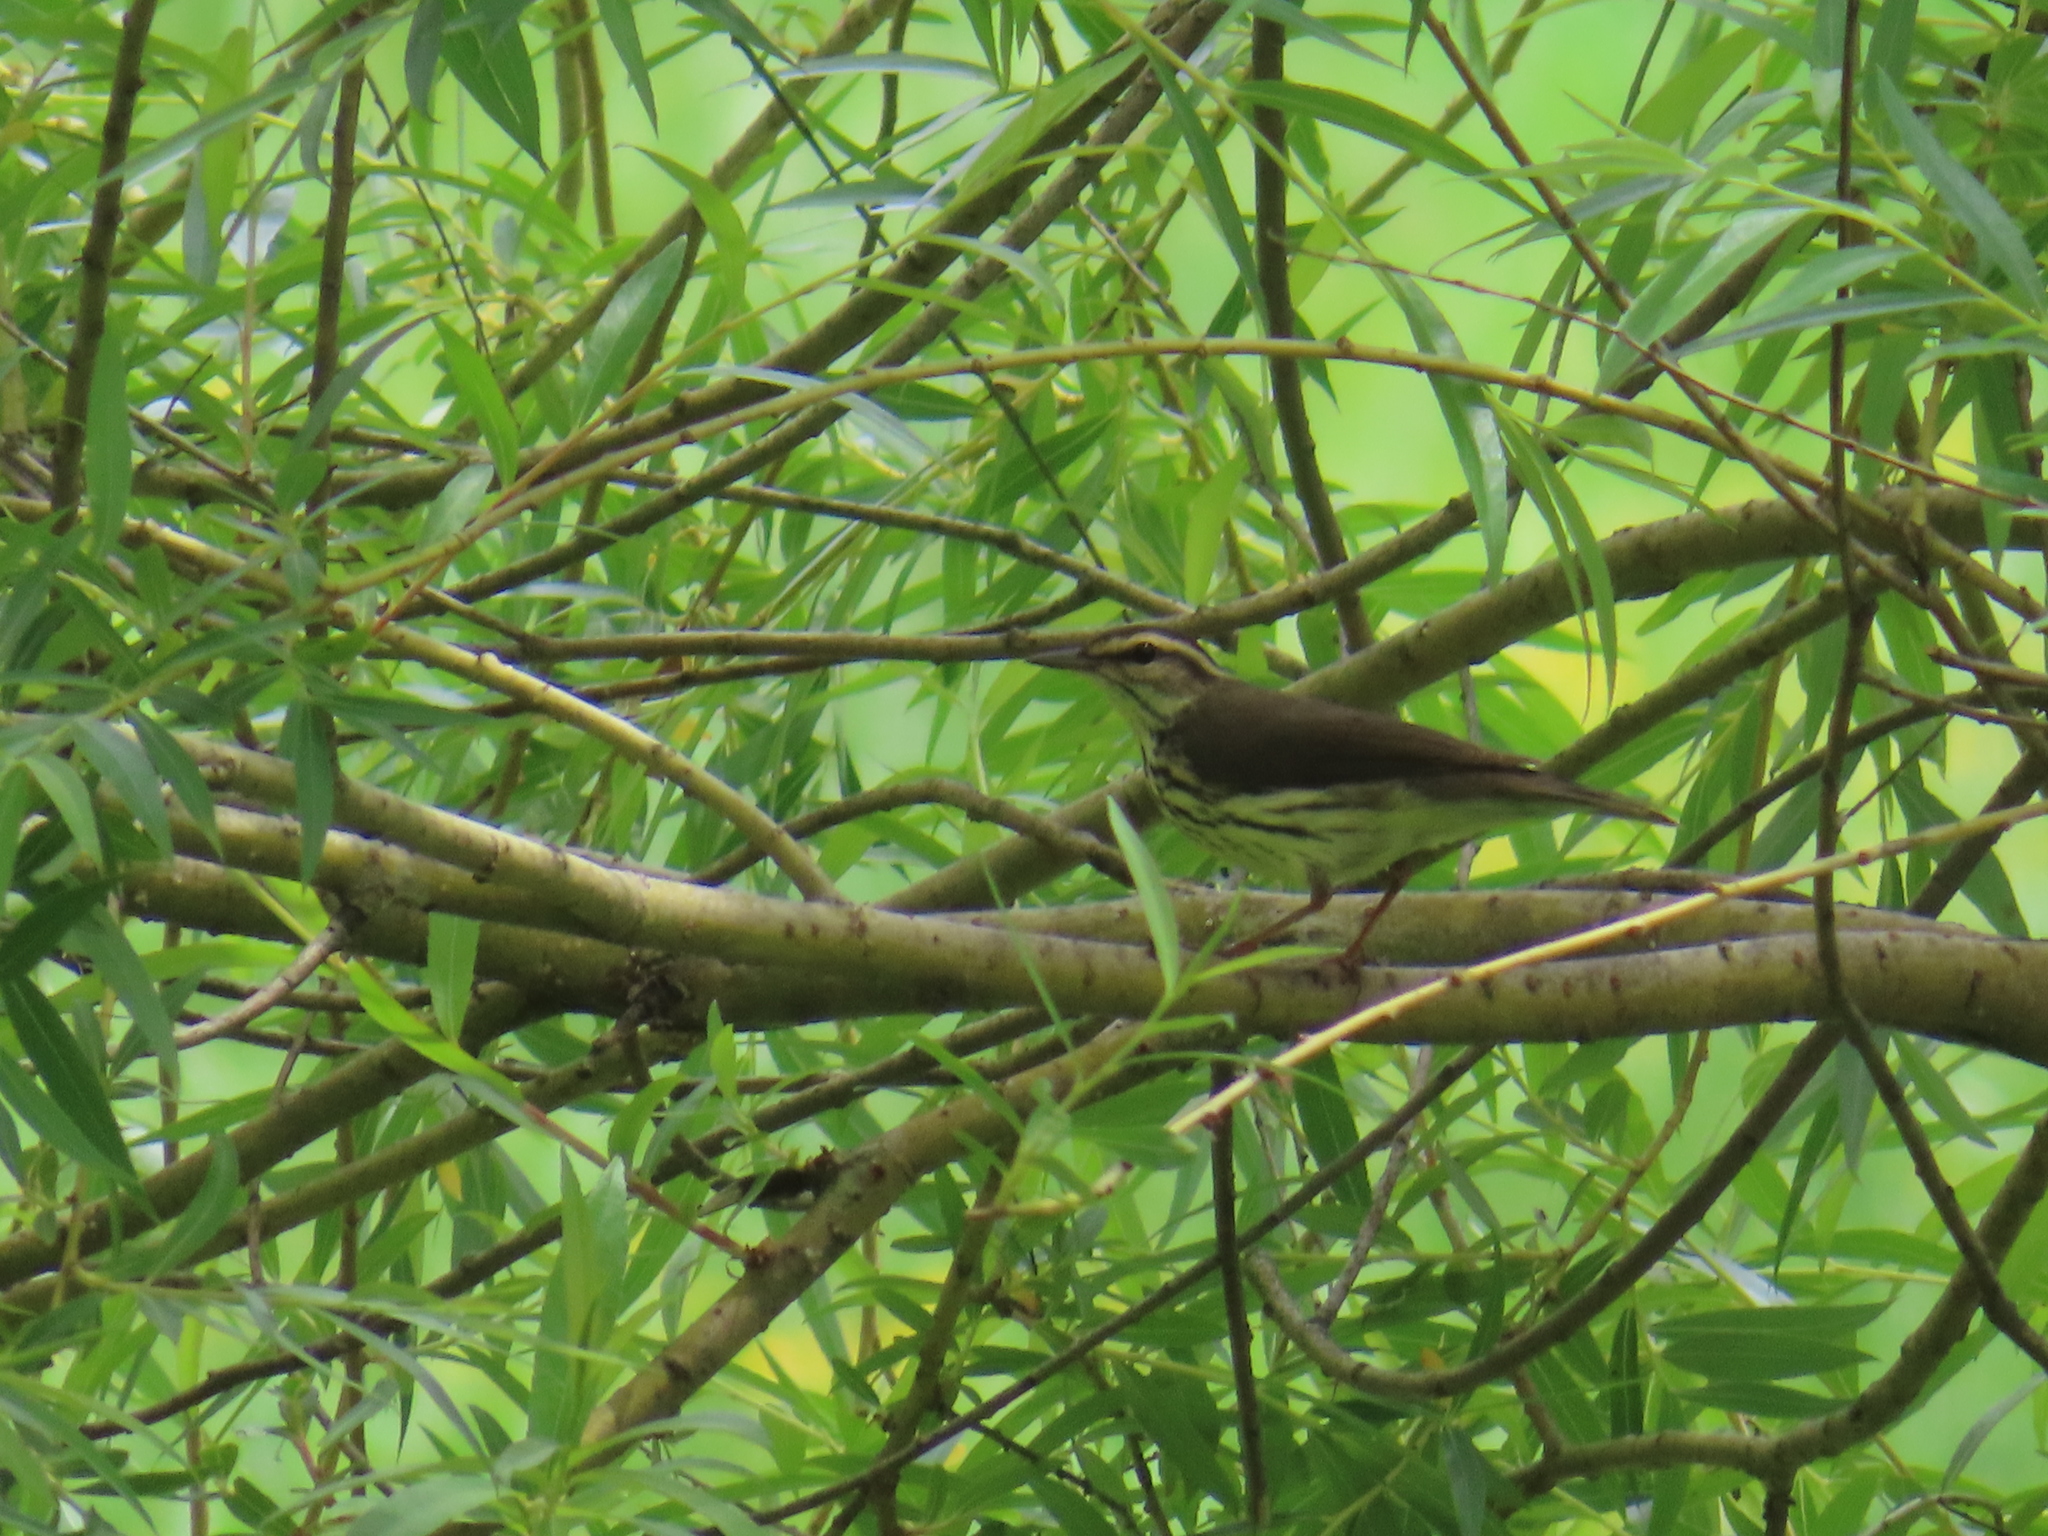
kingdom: Animalia
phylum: Chordata
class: Aves
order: Passeriformes
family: Parulidae
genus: Parkesia
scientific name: Parkesia noveboracensis
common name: Northern waterthrush
